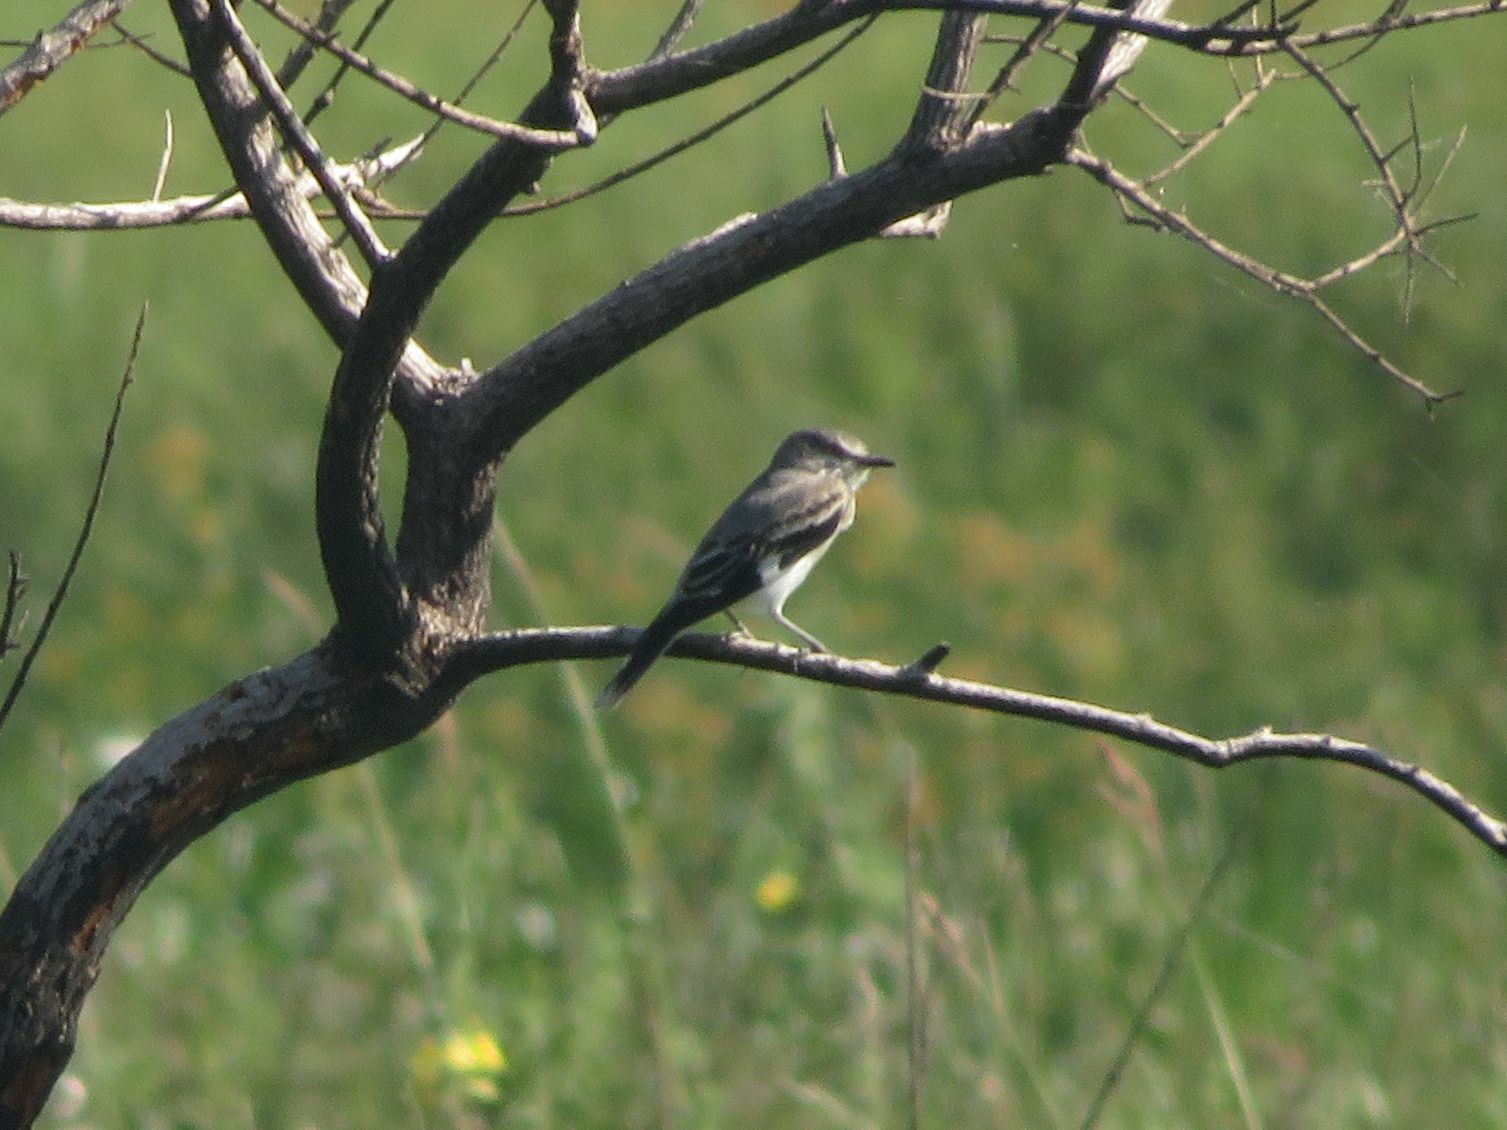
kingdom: Animalia
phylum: Chordata
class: Aves
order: Passeriformes
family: Tyrannidae
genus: Xolmis
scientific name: Xolmis cinereus
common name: Grey monjita
